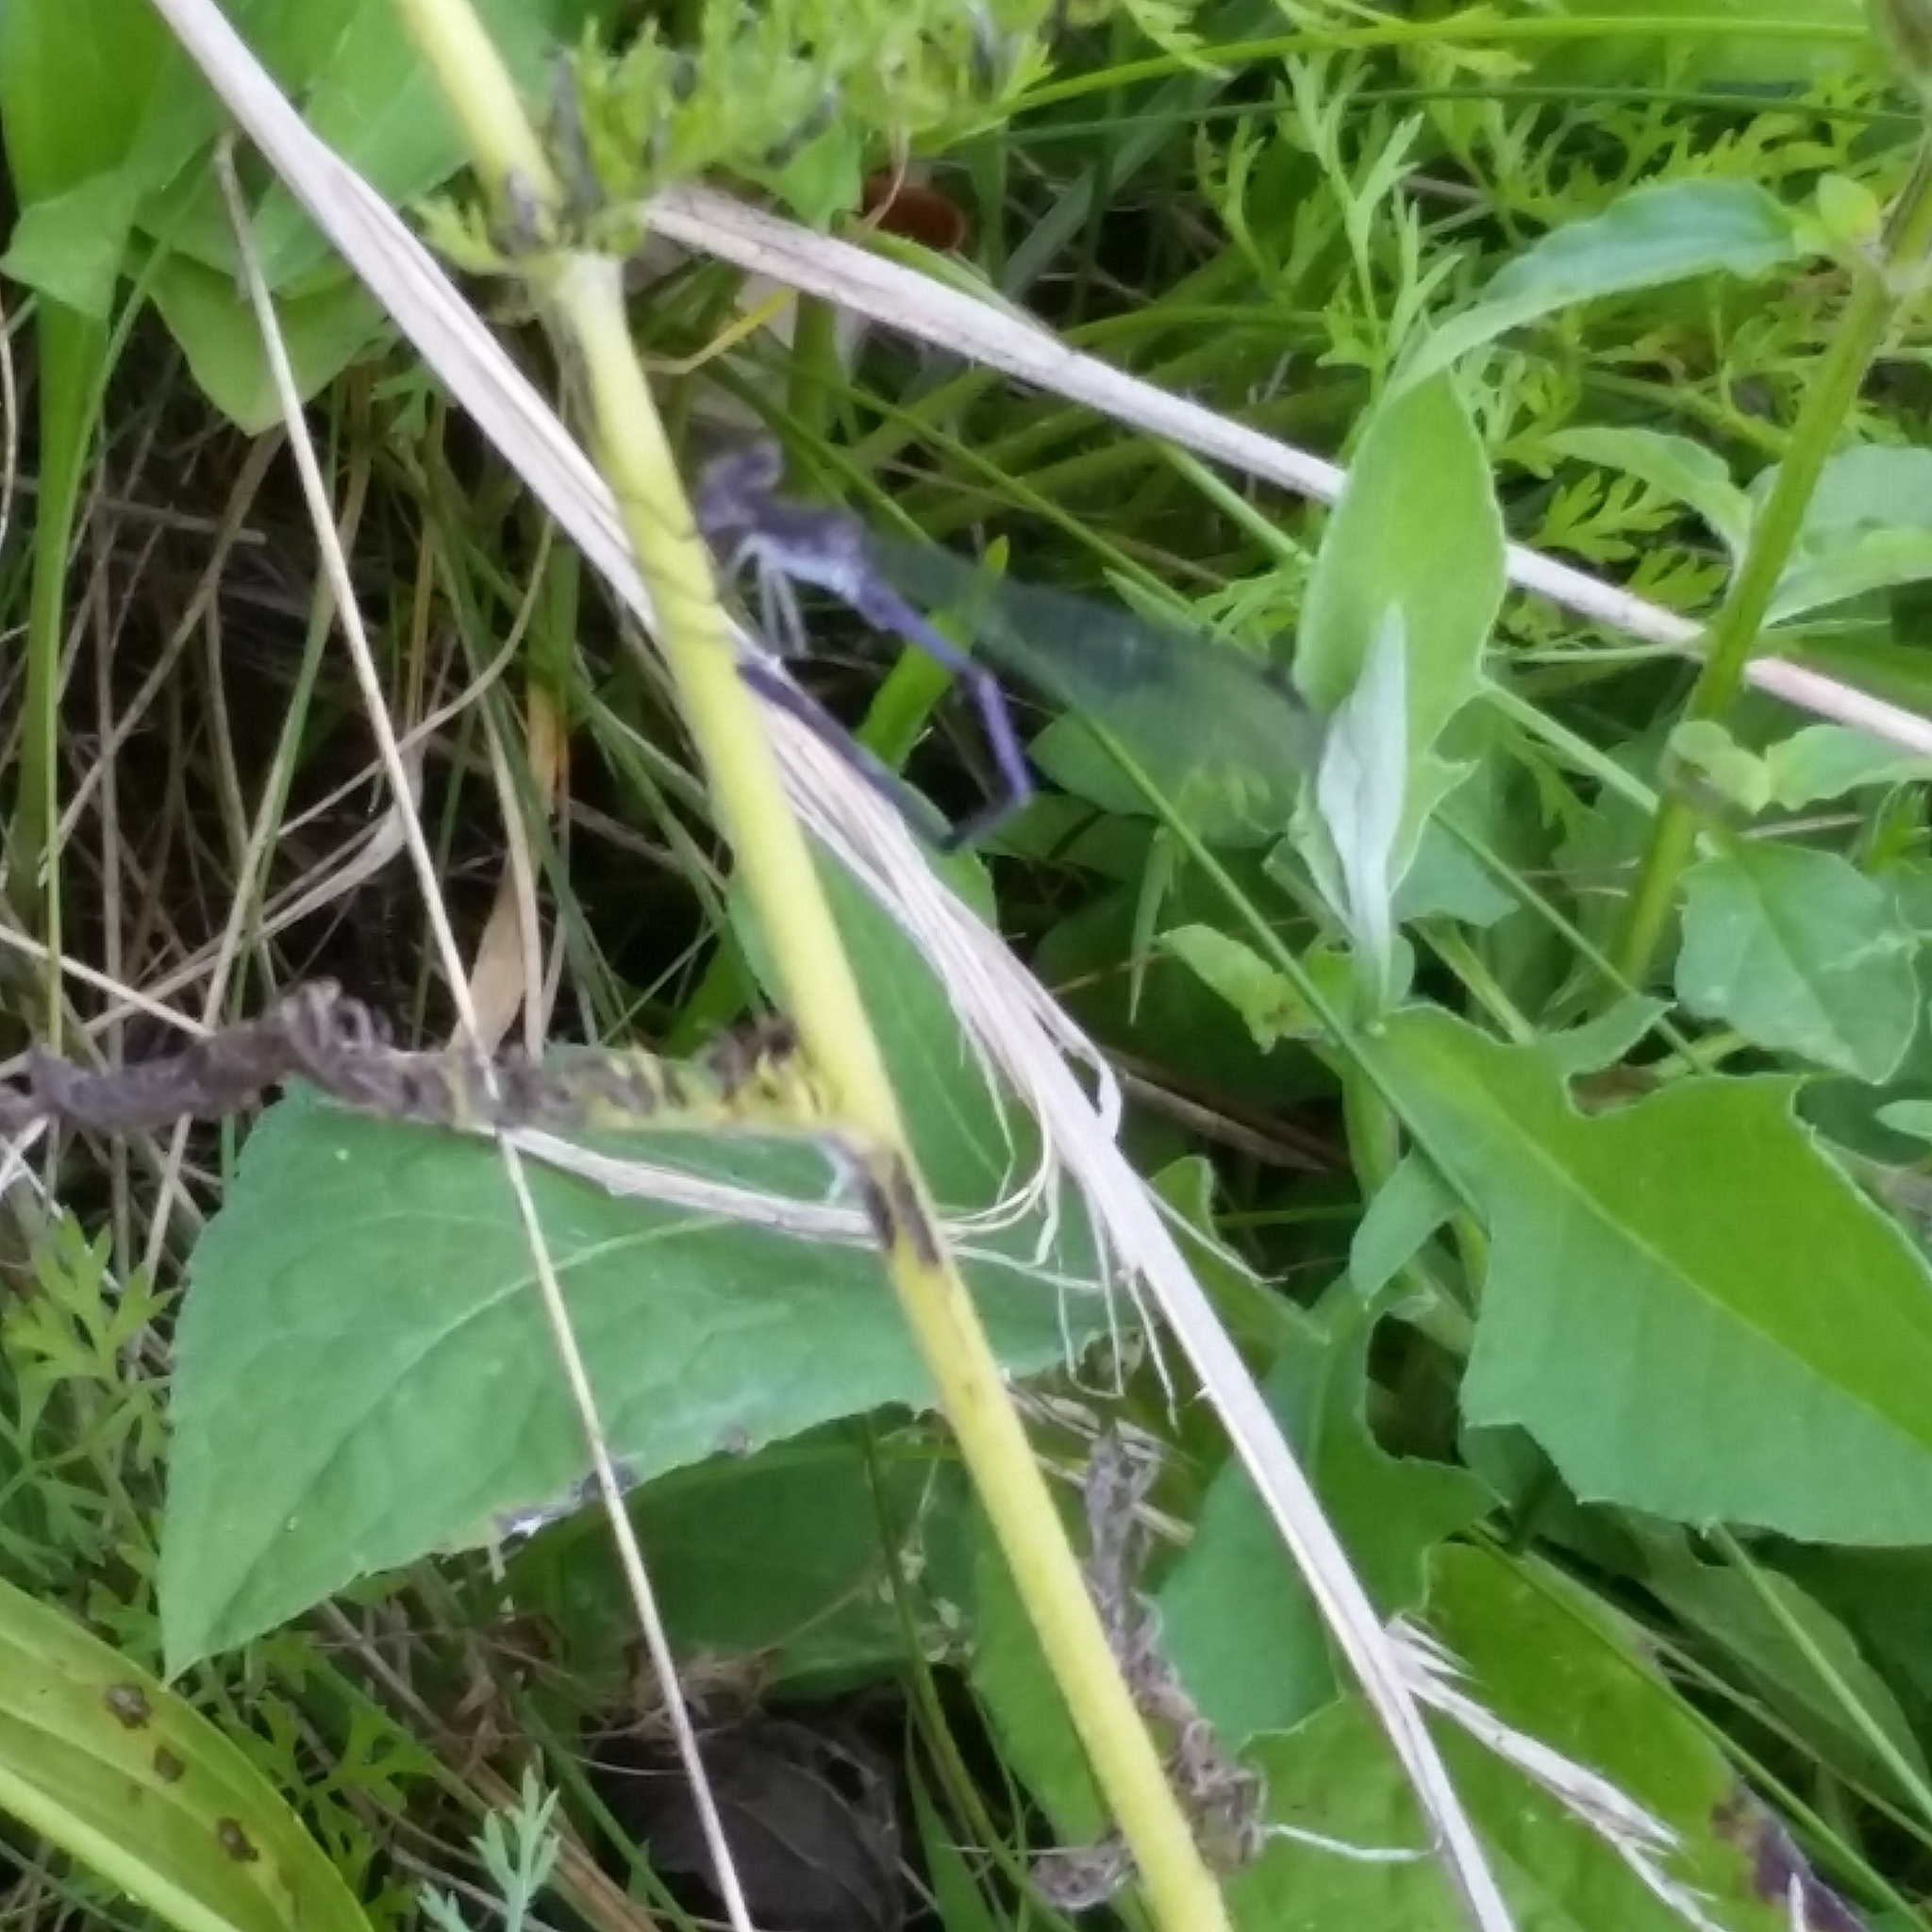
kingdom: Animalia
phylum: Arthropoda
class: Insecta
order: Odonata
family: Coenagrionidae
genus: Argia
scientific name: Argia fumipennis
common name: Variable dancer
